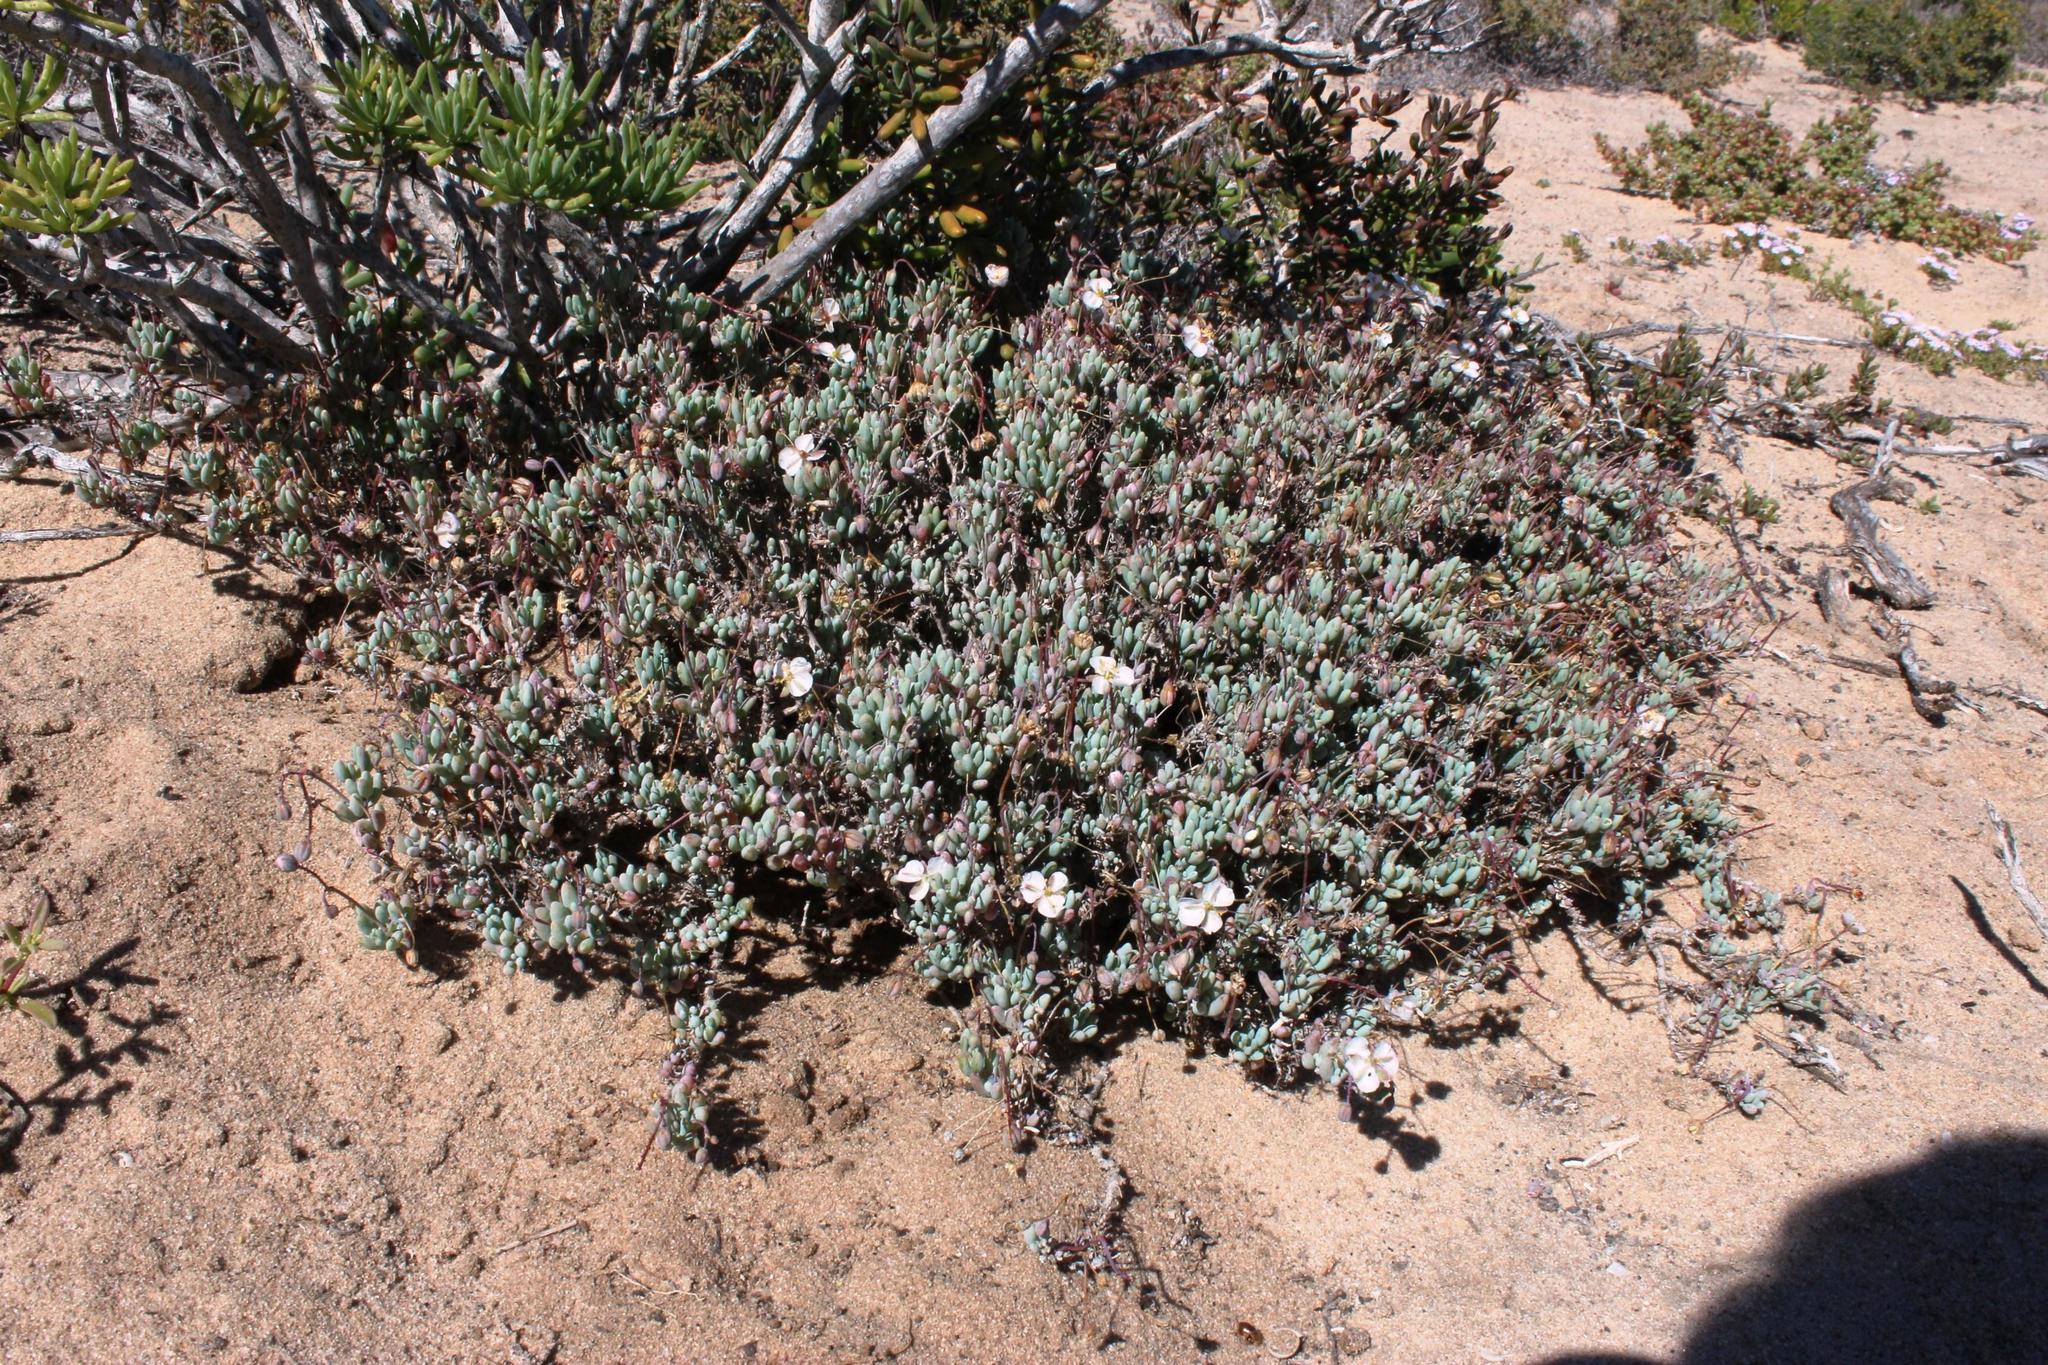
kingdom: Plantae
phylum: Tracheophyta
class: Magnoliopsida
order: Caryophyllales
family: Kewaceae
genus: Kewa
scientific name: Kewa angrae-pequenae
